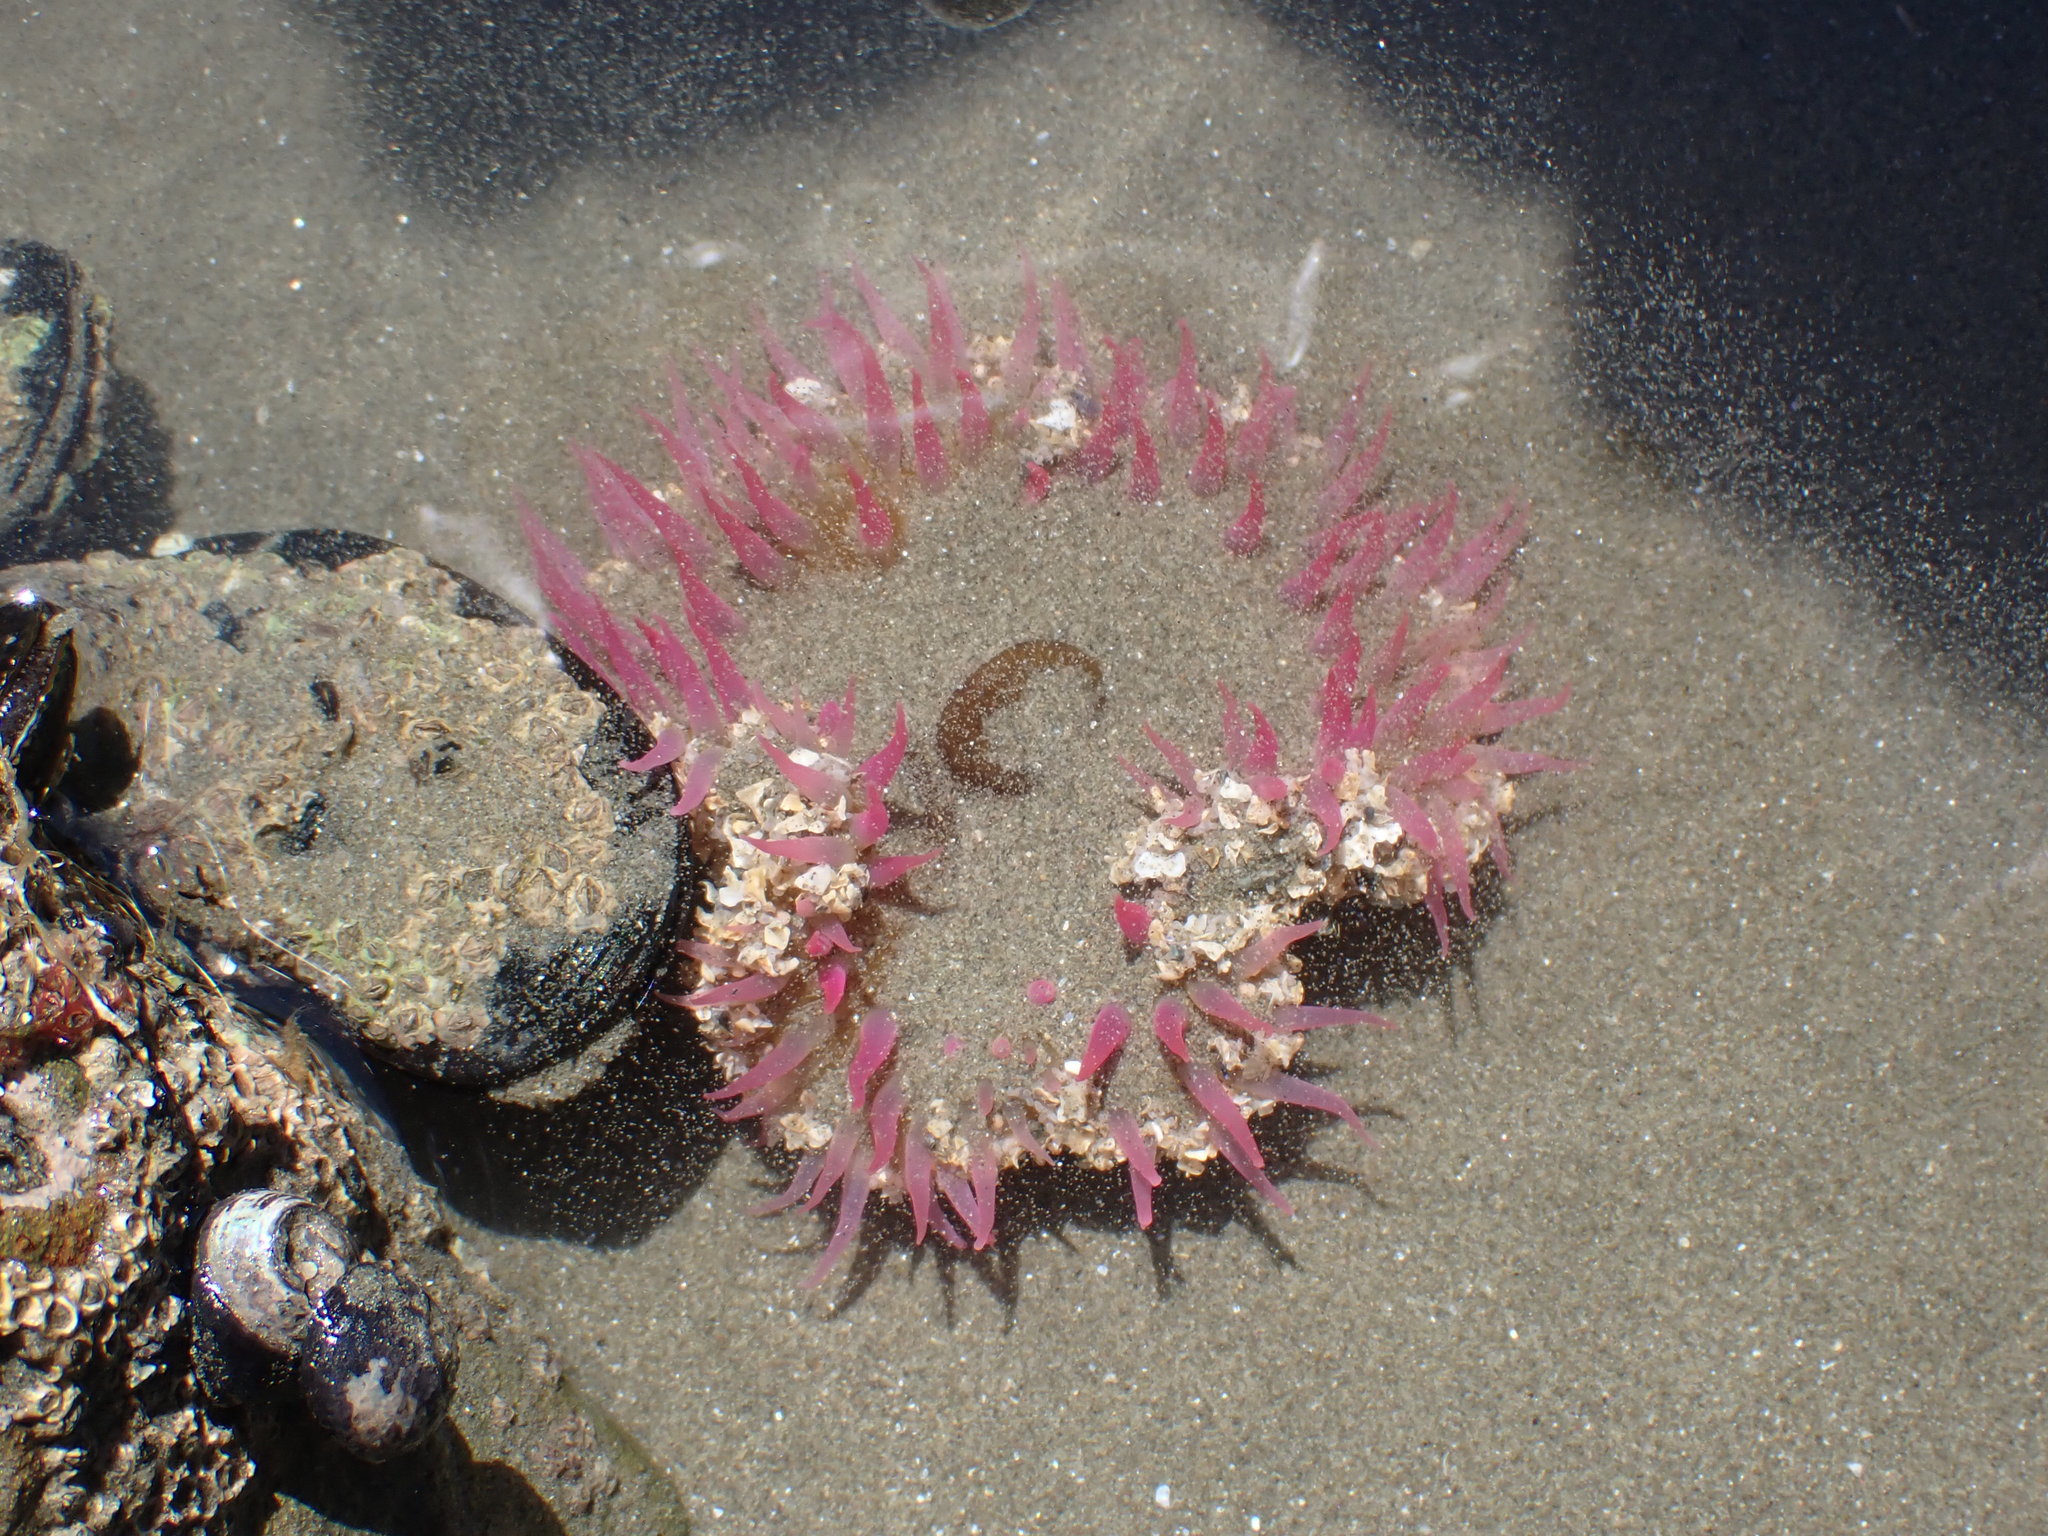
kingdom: Animalia
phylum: Cnidaria
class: Anthozoa
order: Actiniaria
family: Actiniidae
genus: Oulactis
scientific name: Oulactis magna
